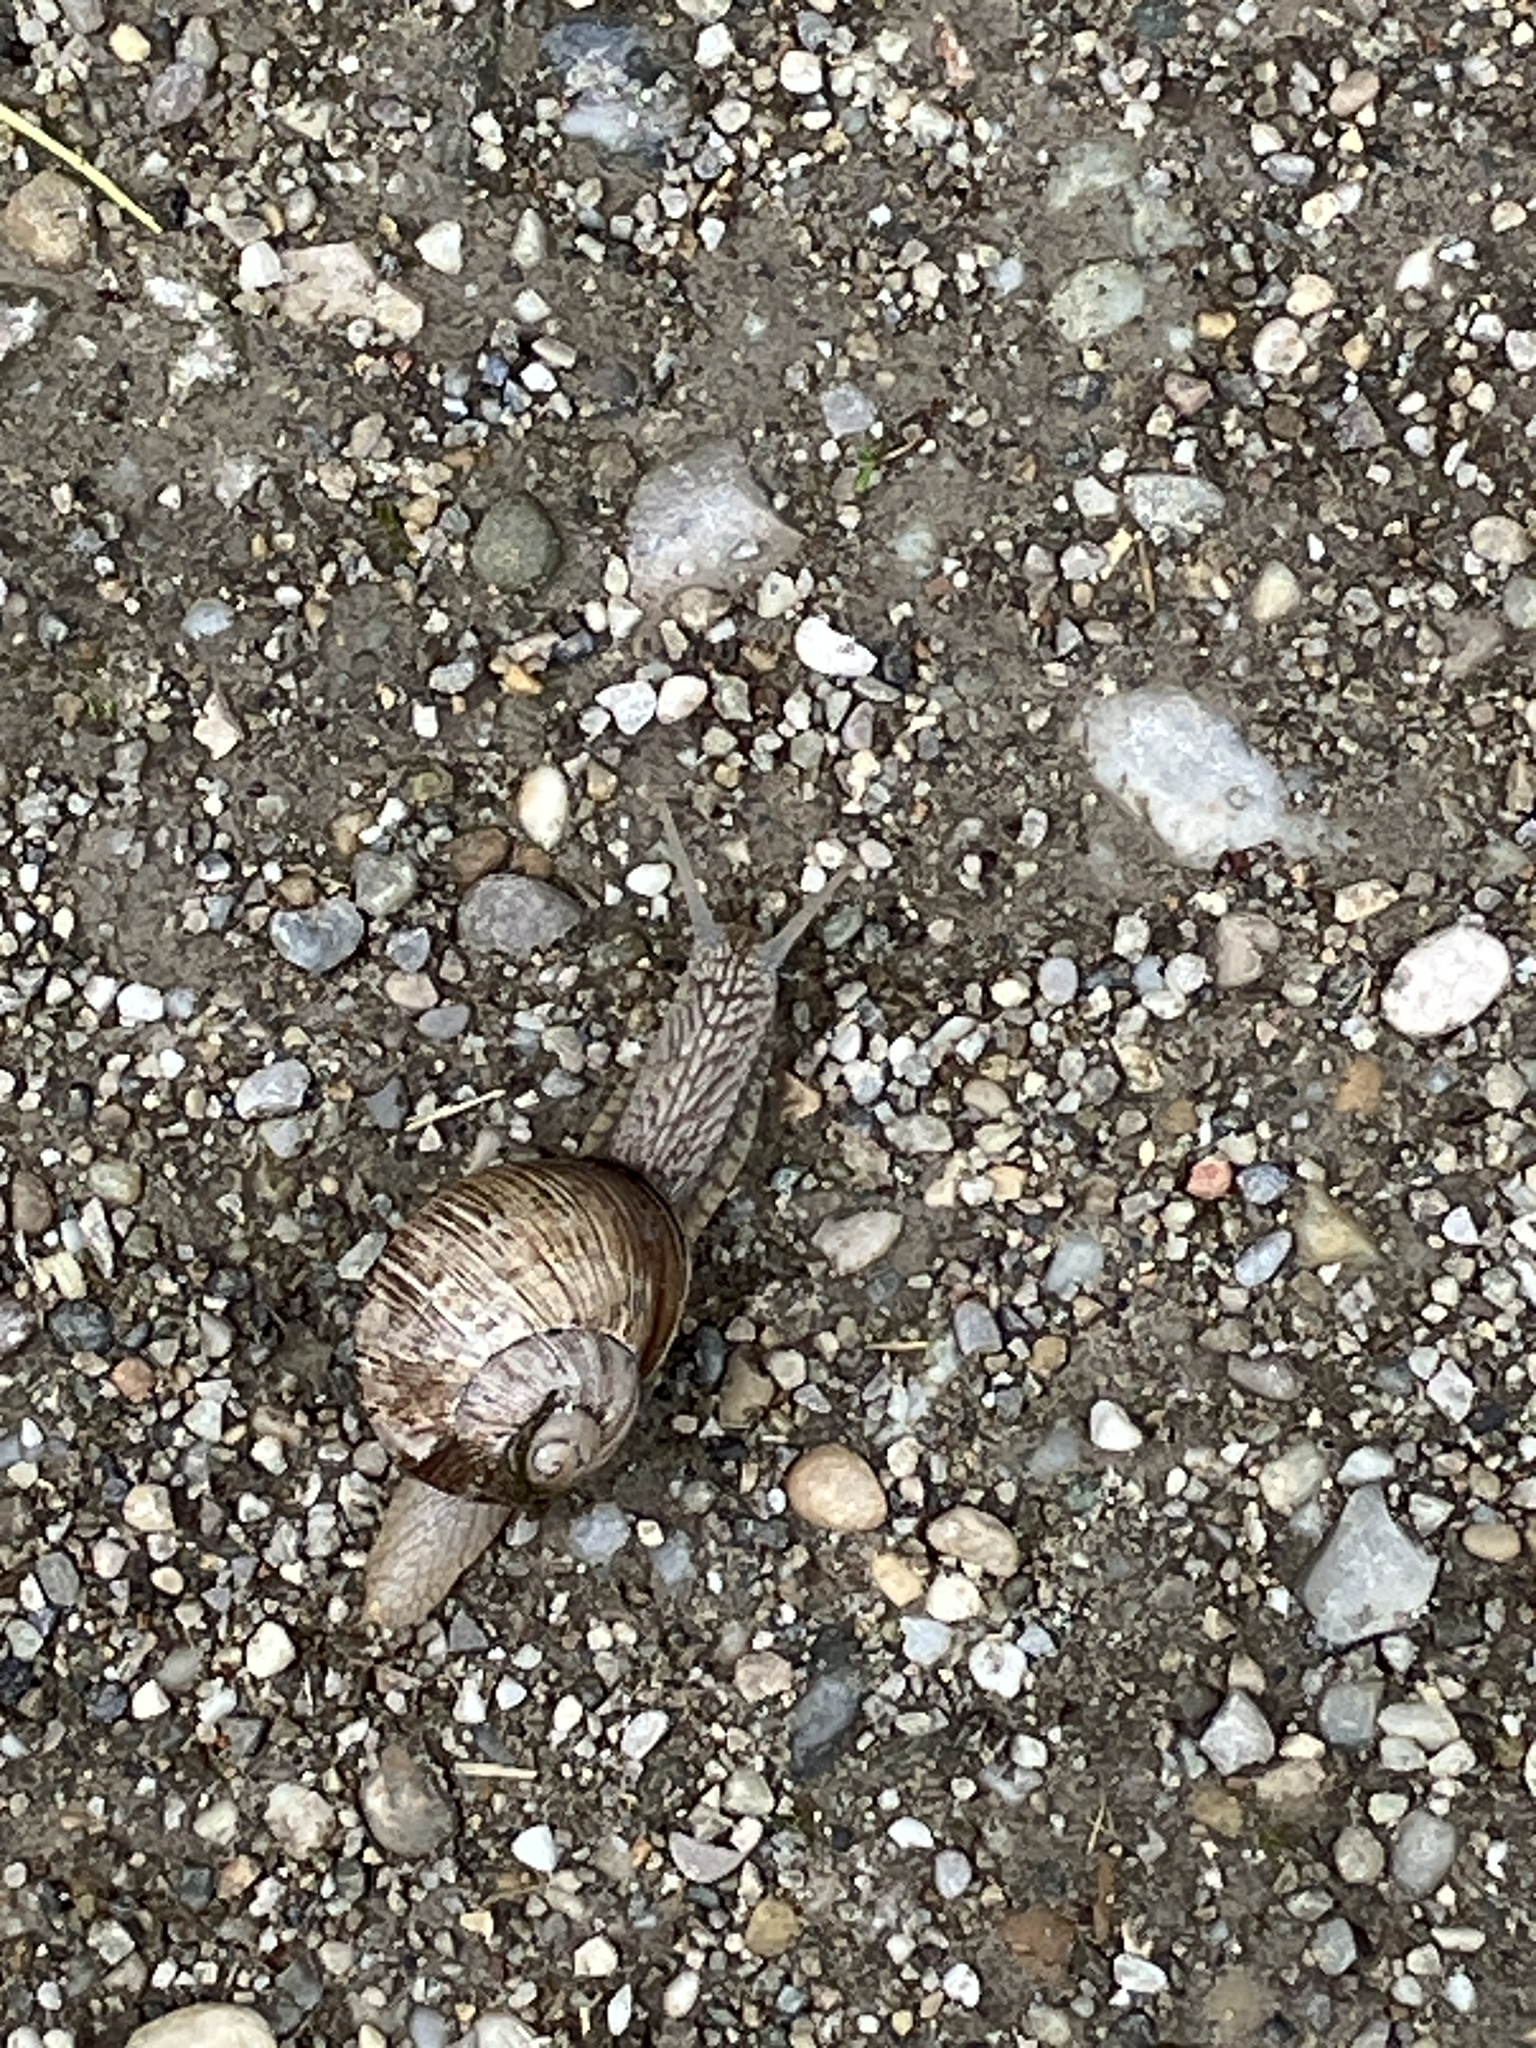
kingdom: Animalia
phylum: Mollusca
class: Gastropoda
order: Stylommatophora
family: Helicidae
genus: Helix
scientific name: Helix pomatia
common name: Roman snail
